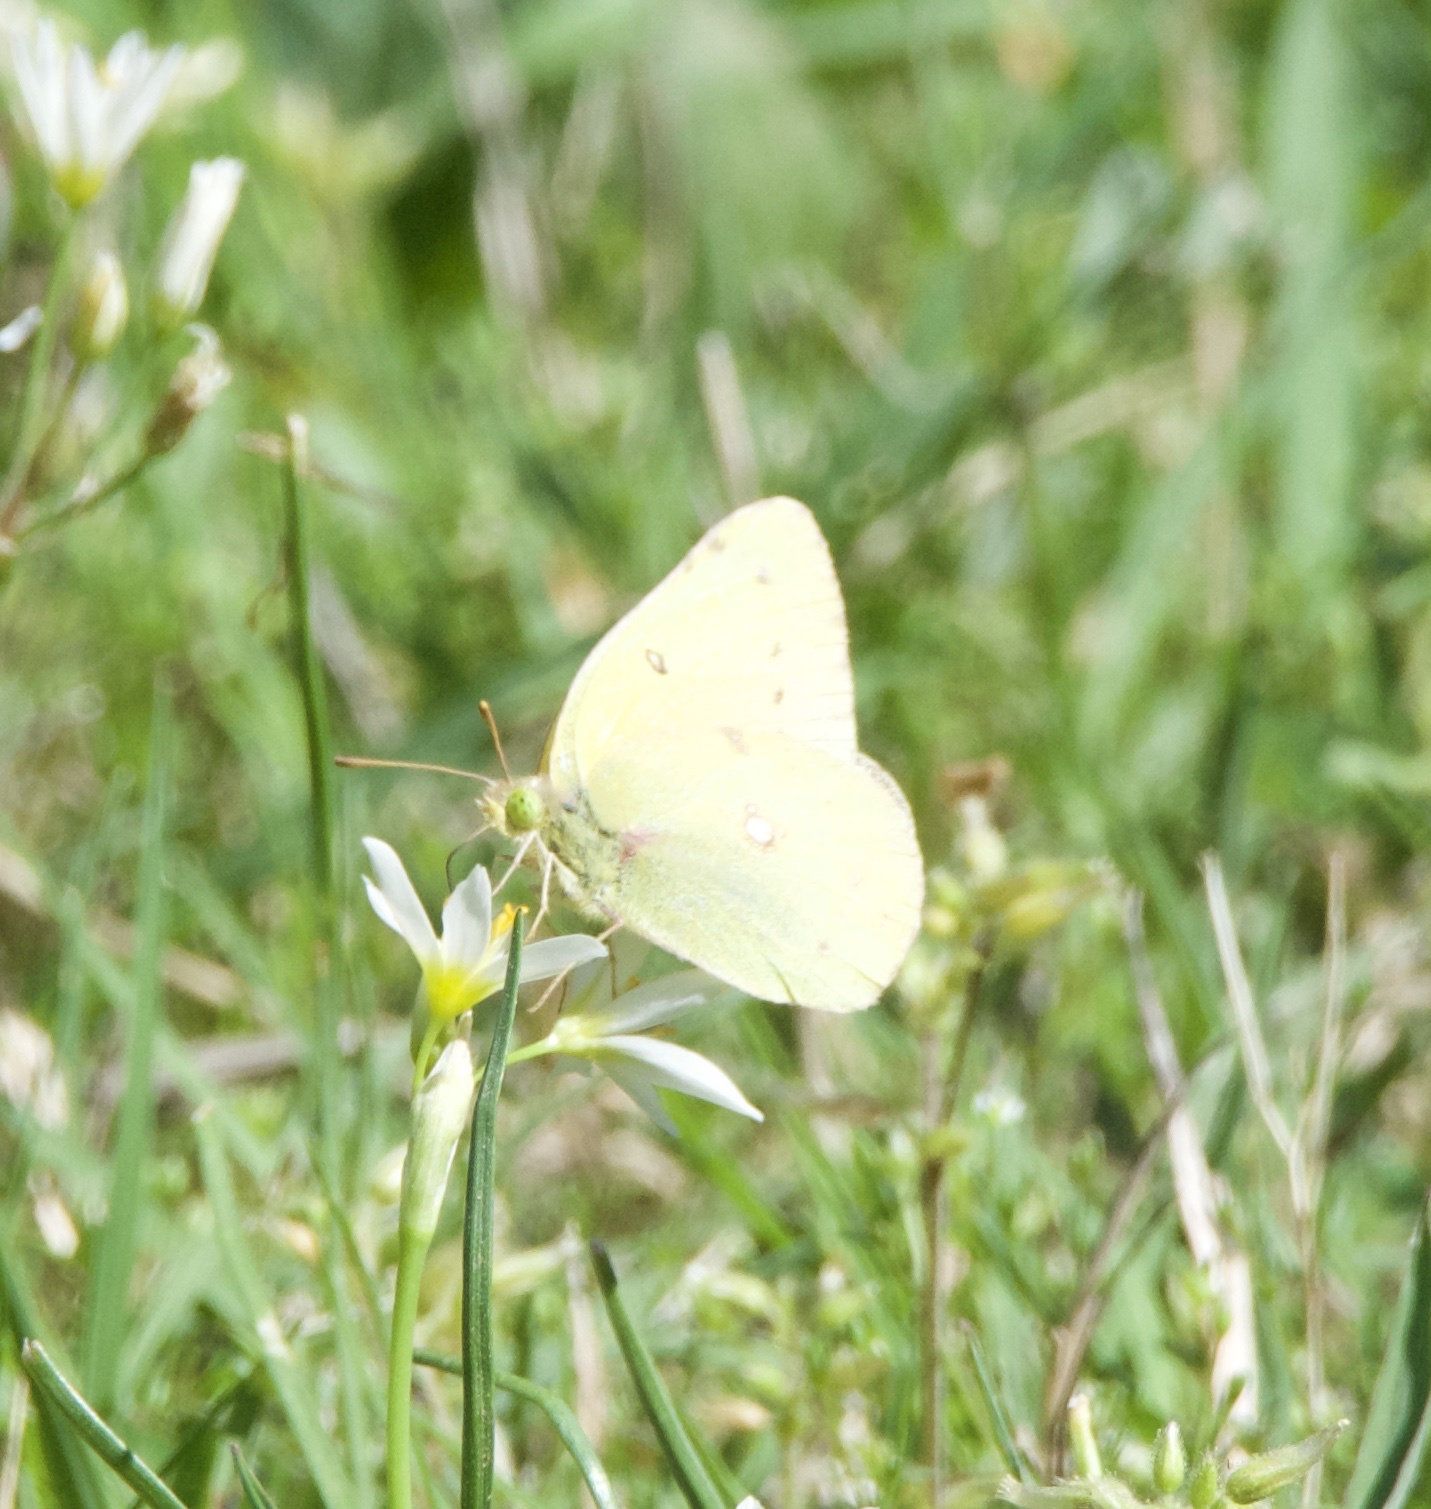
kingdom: Animalia
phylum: Arthropoda
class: Insecta
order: Lepidoptera
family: Pieridae
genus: Colias
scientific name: Colias eurytheme
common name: Alfalfa butterfly
